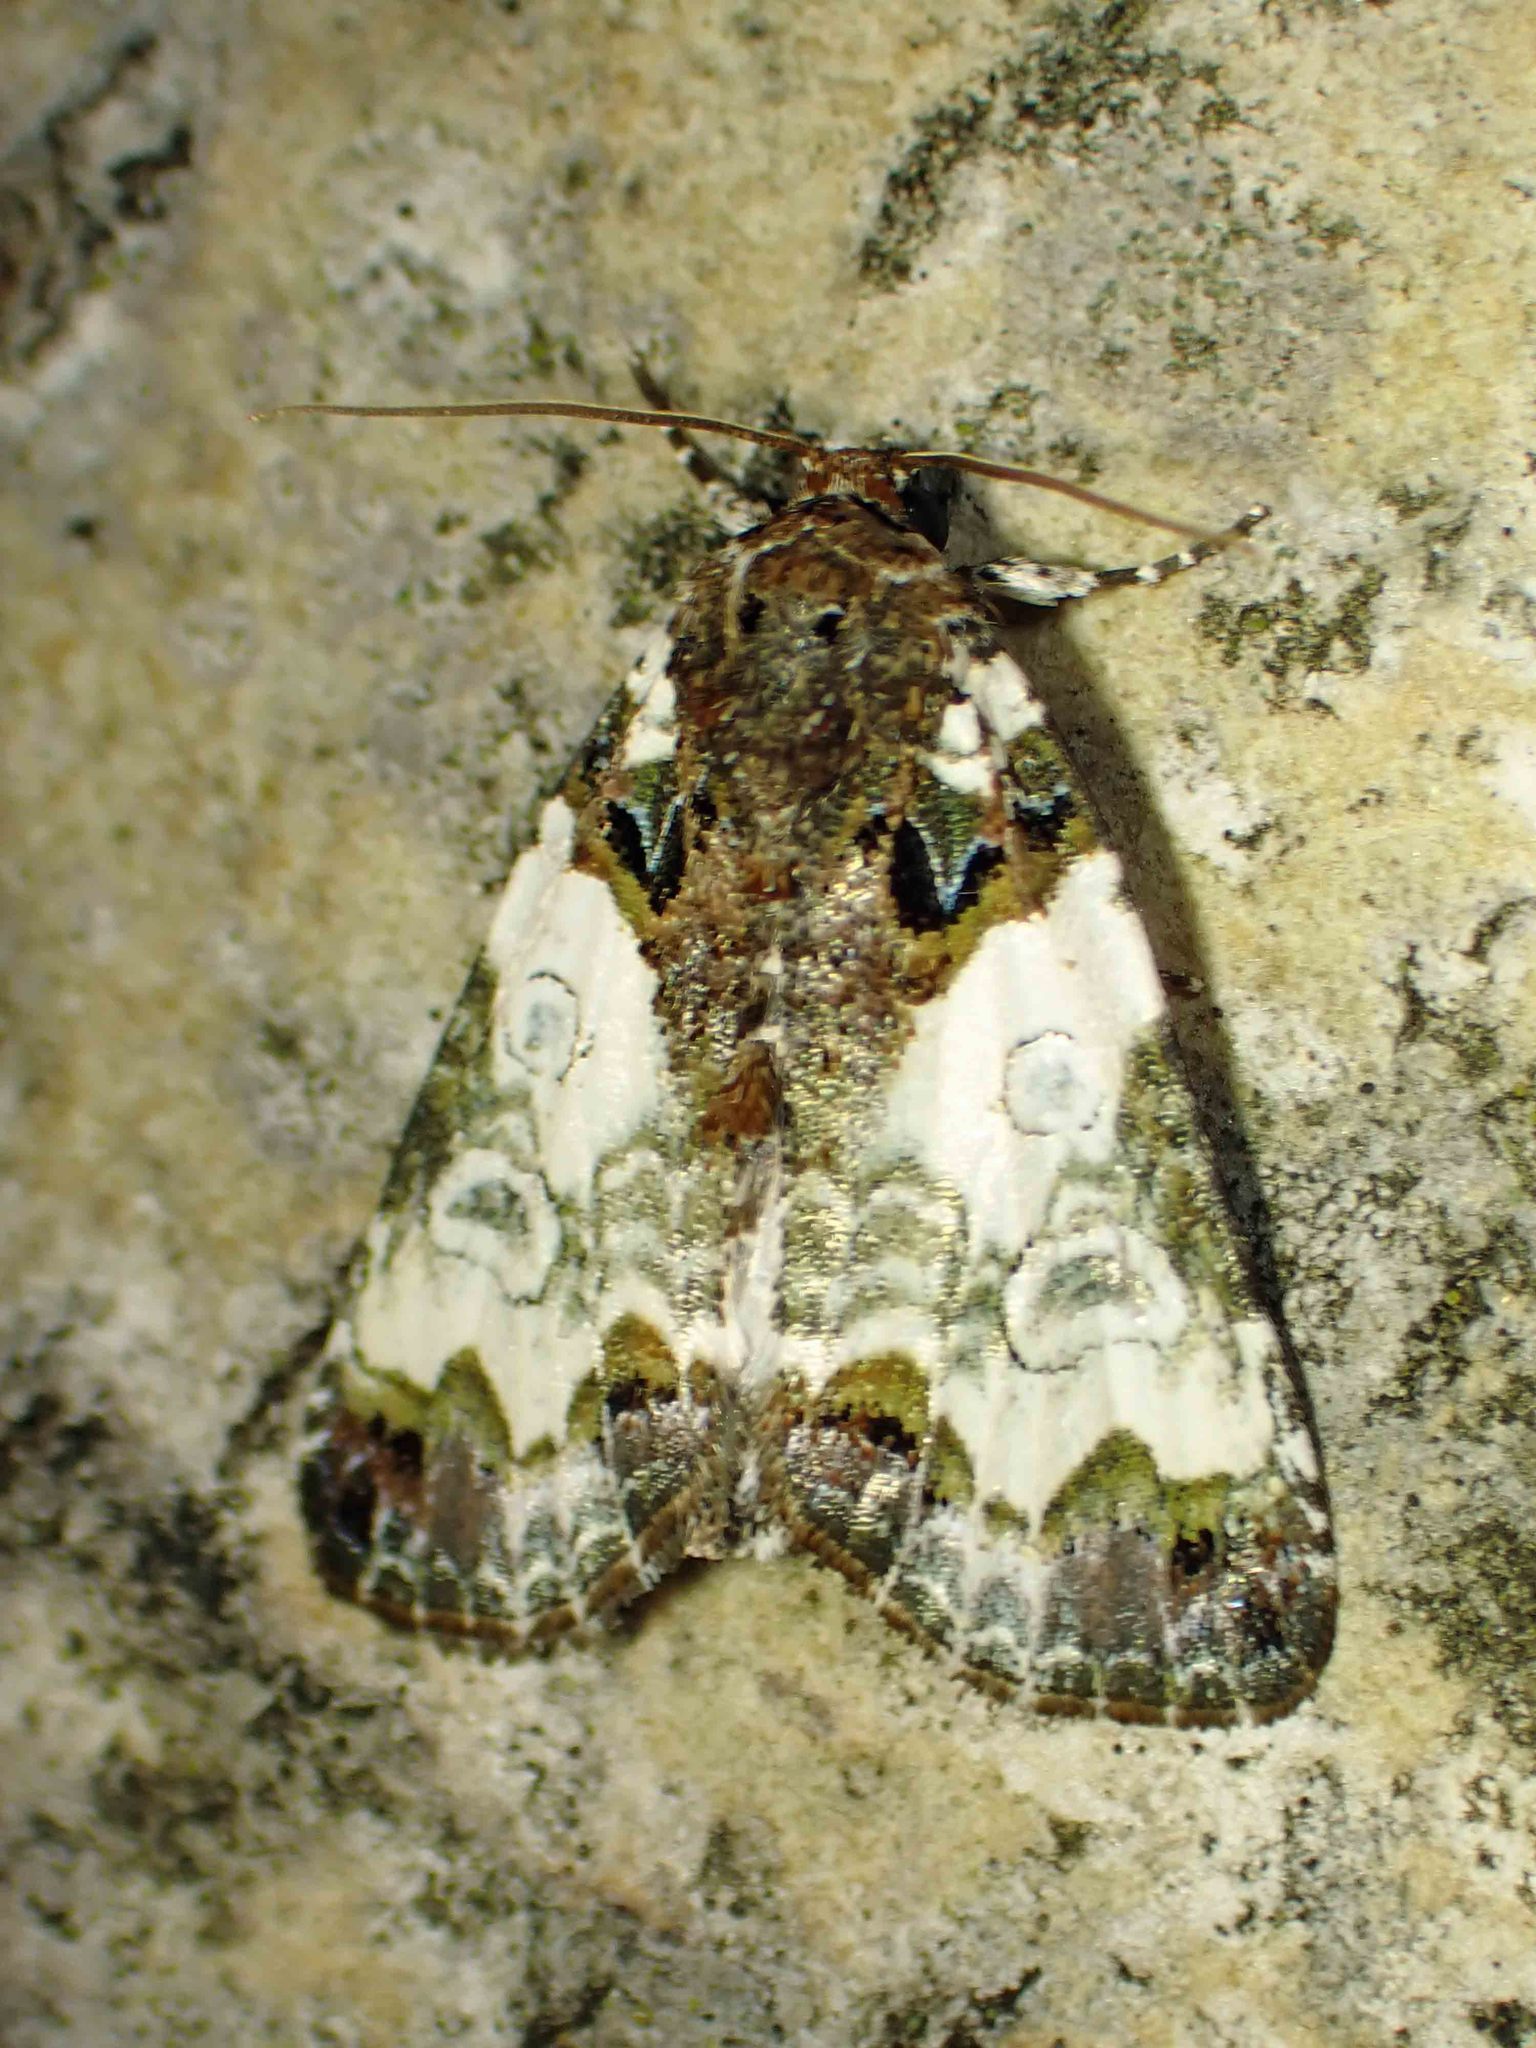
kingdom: Animalia
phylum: Arthropoda
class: Insecta
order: Lepidoptera
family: Noctuidae
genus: Cerma
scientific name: Cerma cerintha
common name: Tufted bird-dropping moth
